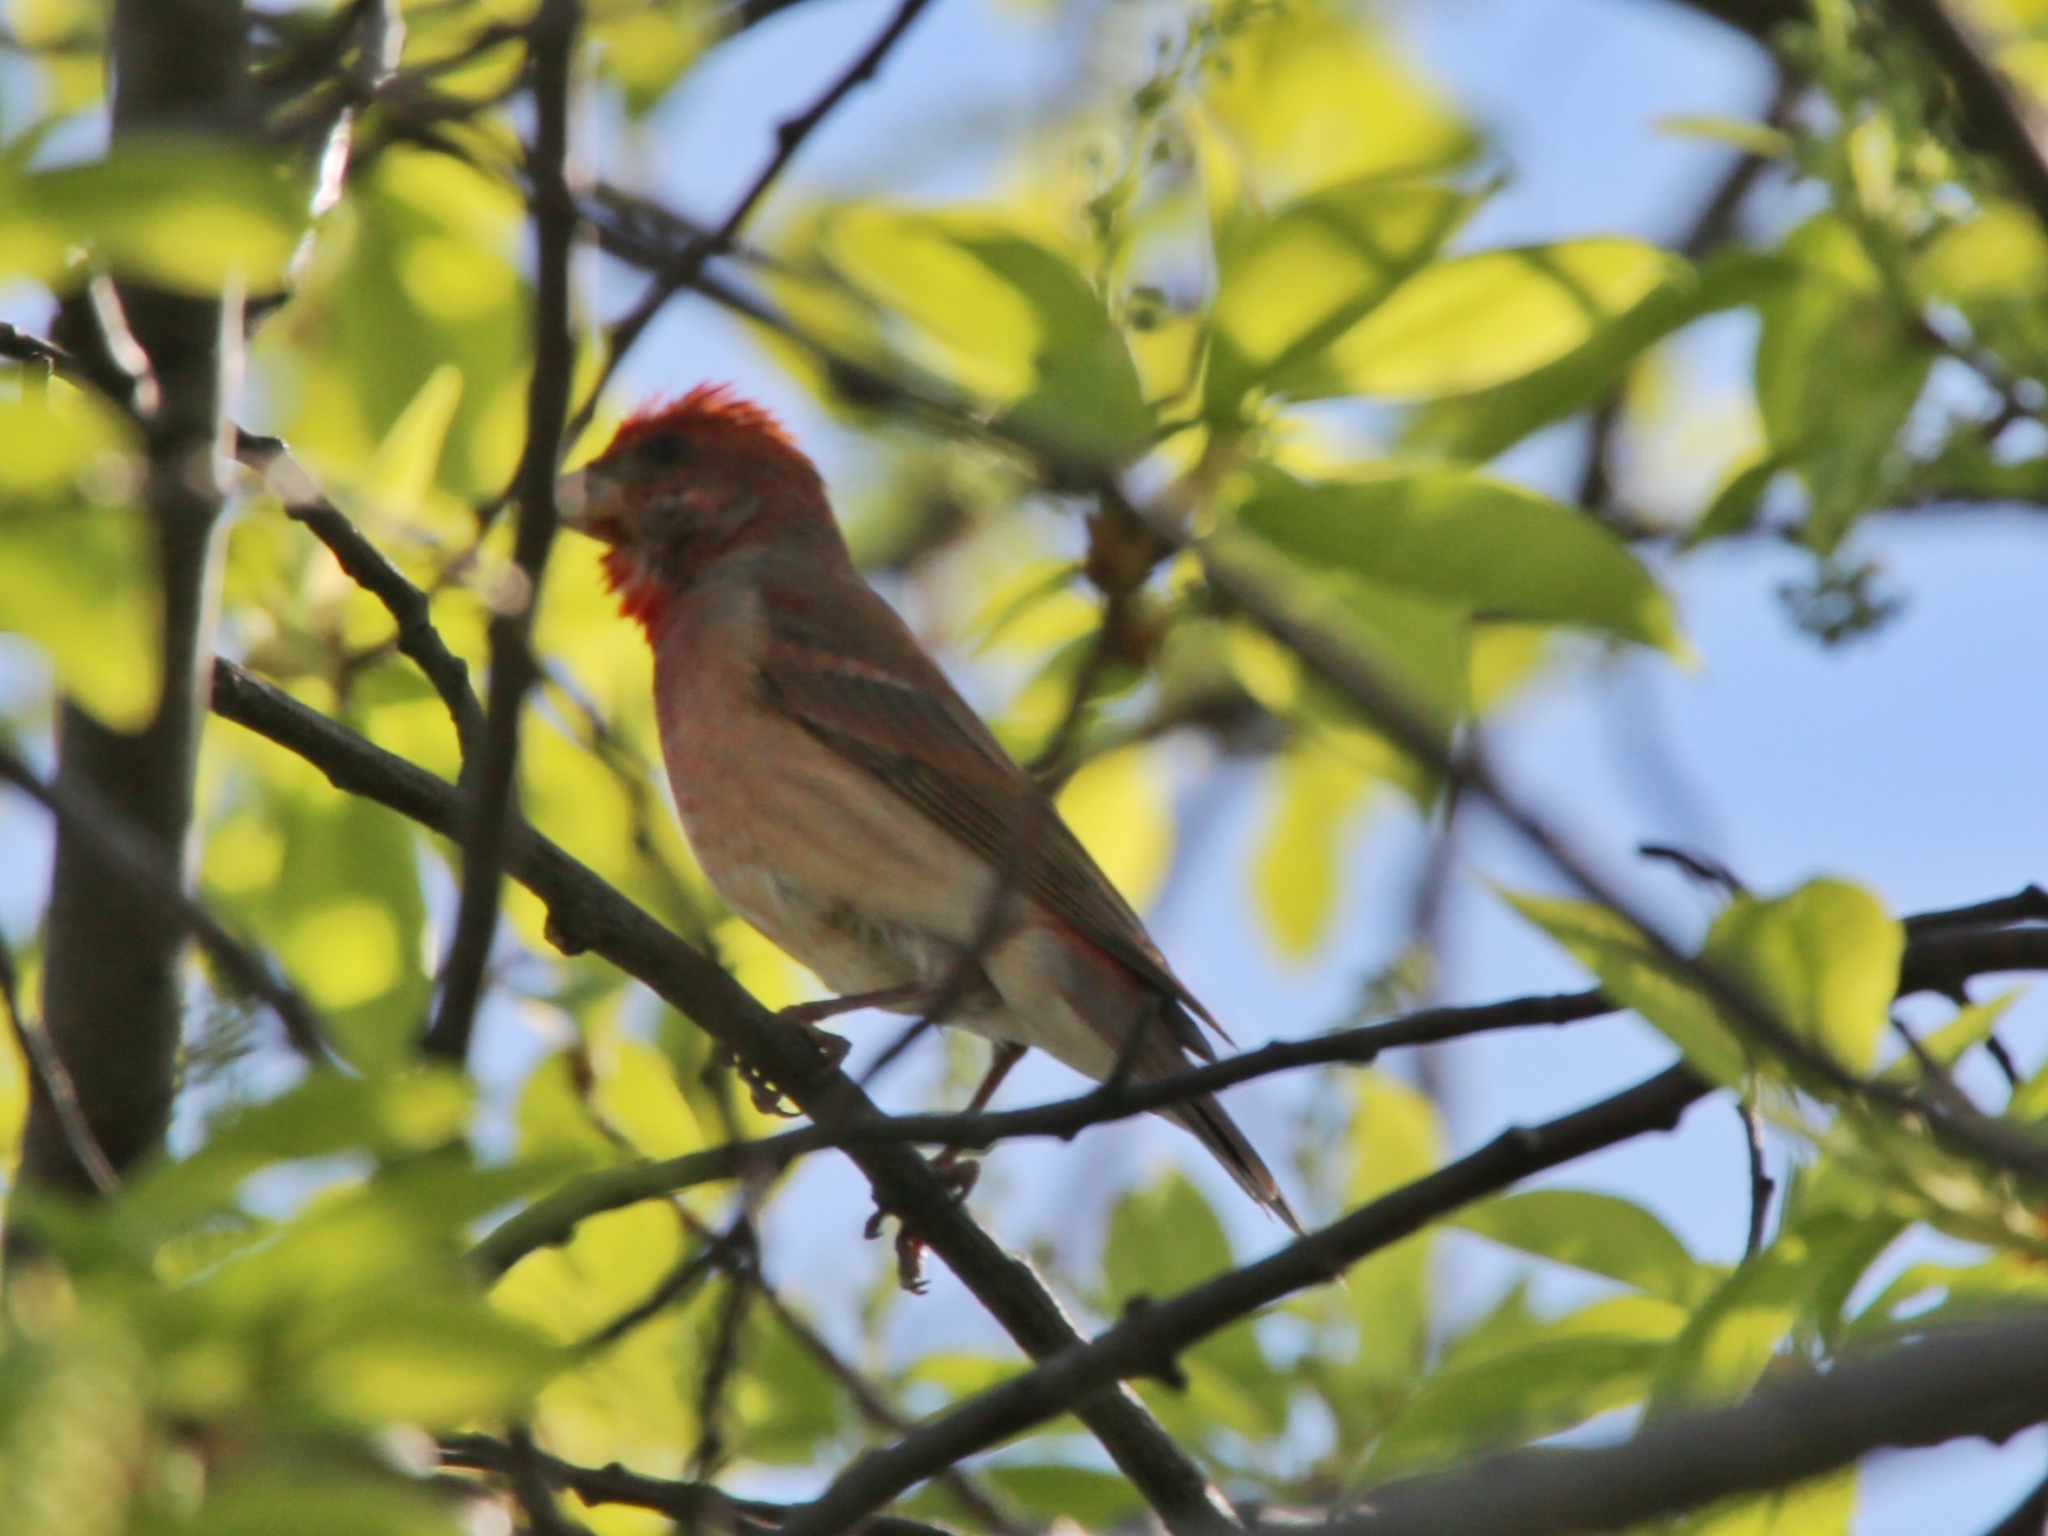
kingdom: Animalia
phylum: Chordata
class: Aves
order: Passeriformes
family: Fringillidae
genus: Carpodacus
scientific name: Carpodacus erythrinus
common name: Common rosefinch
